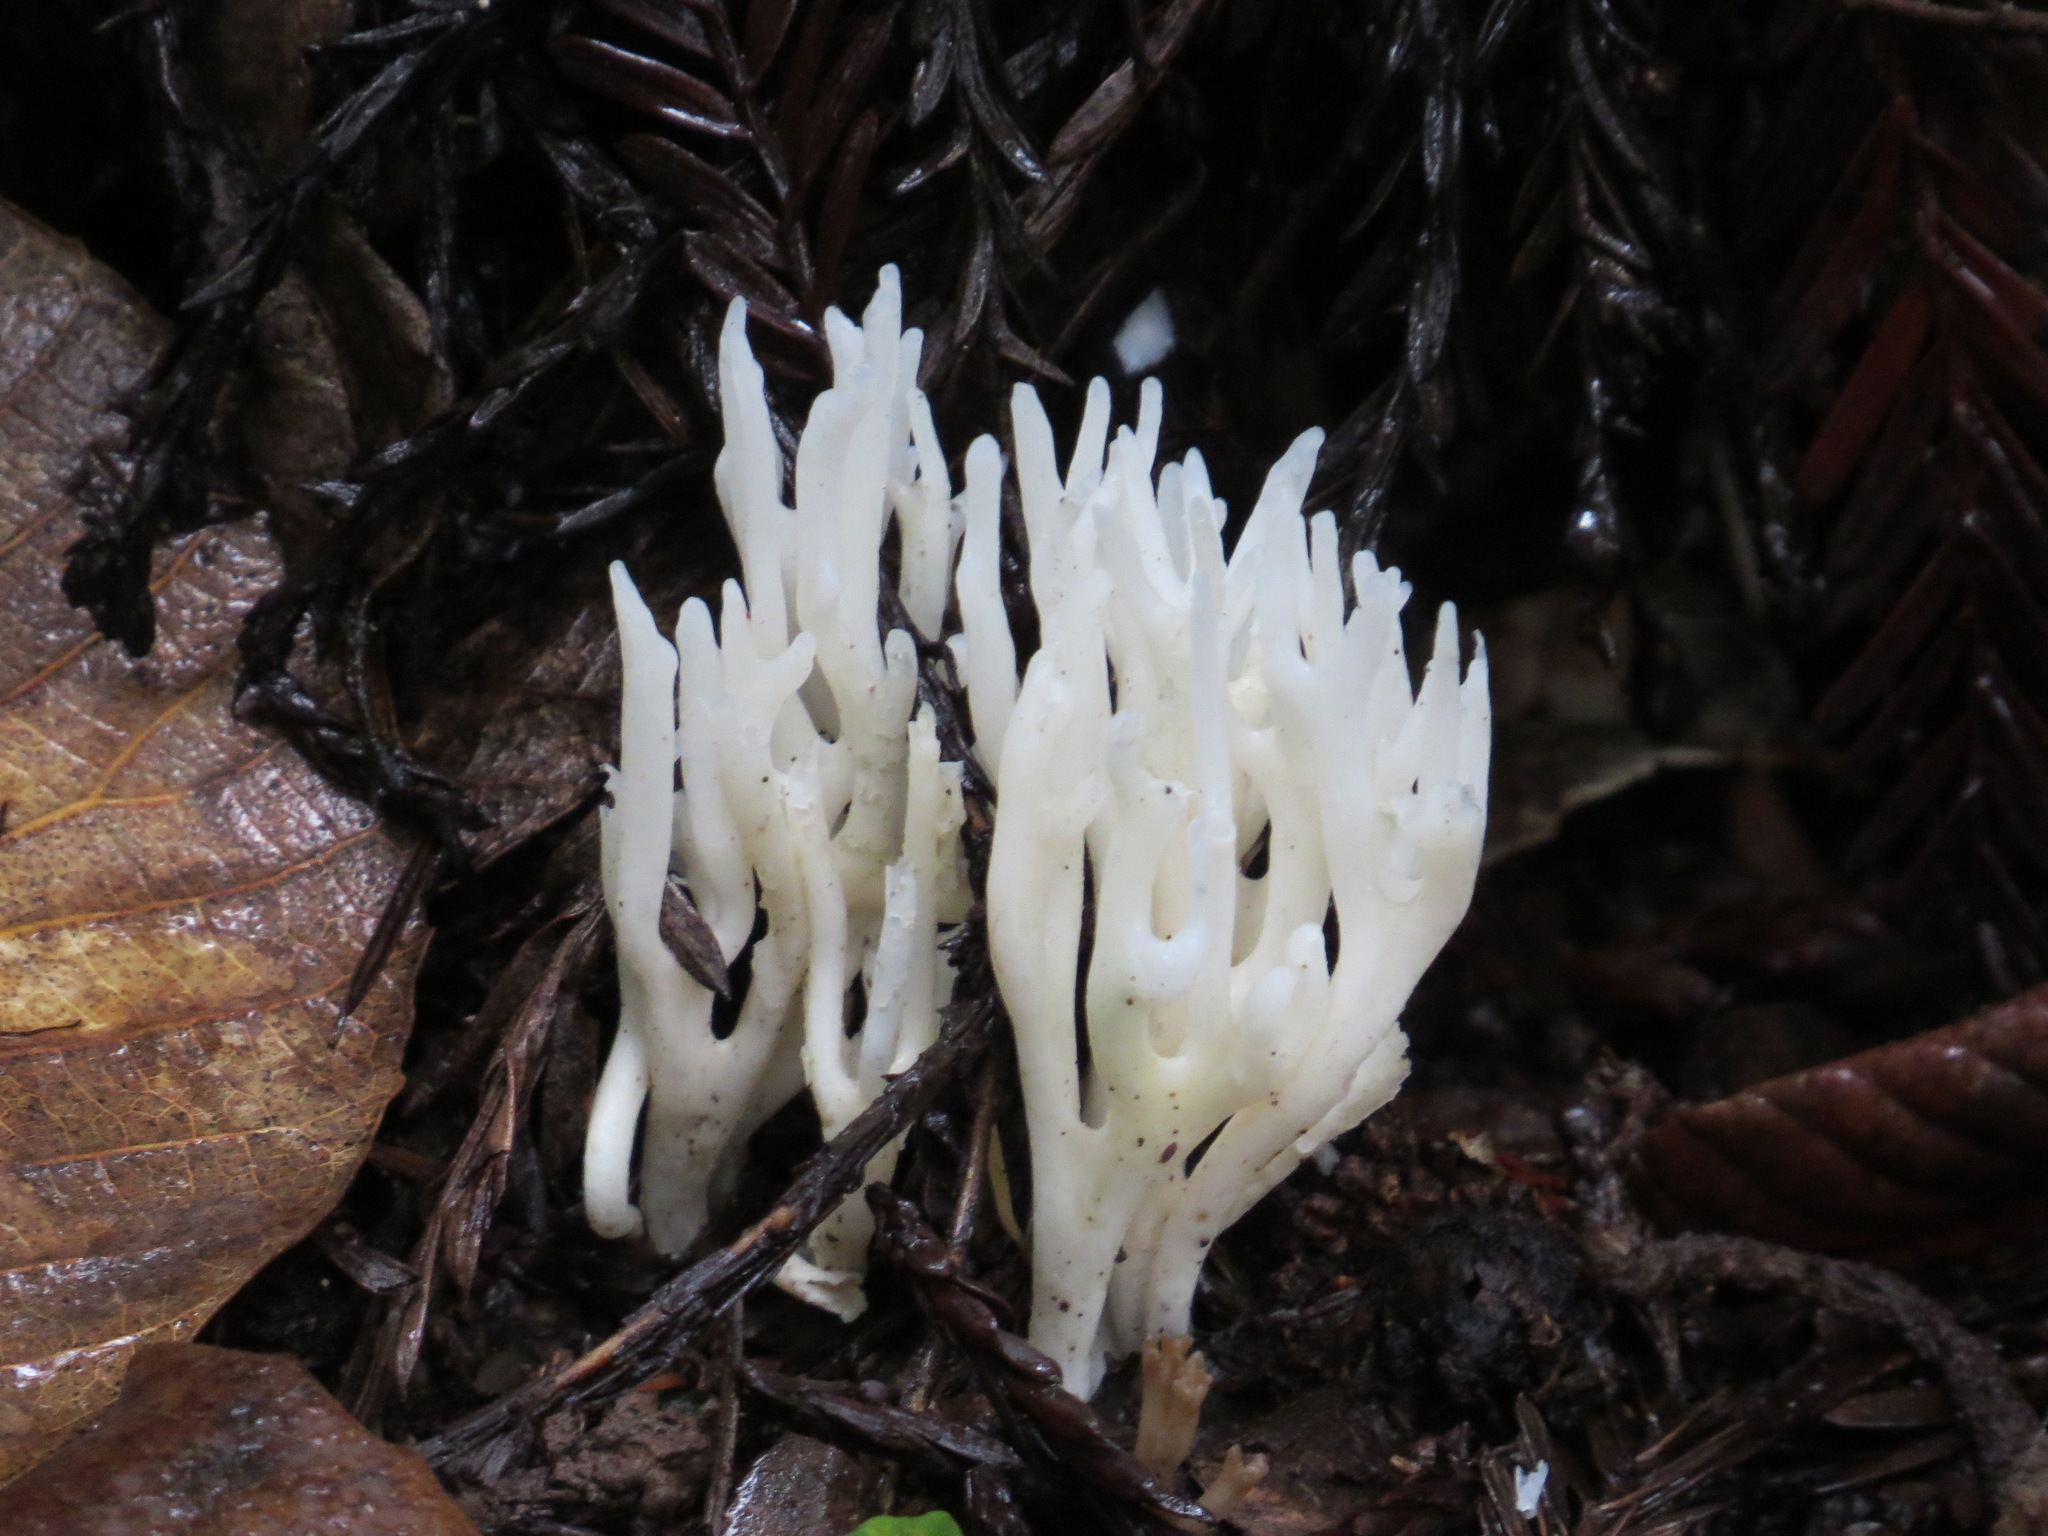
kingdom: Fungi
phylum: Basidiomycota
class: Agaricomycetes
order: Agaricales
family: Clavariaceae
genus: Ramariopsis
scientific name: Ramariopsis kunzei
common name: Ivory coral
